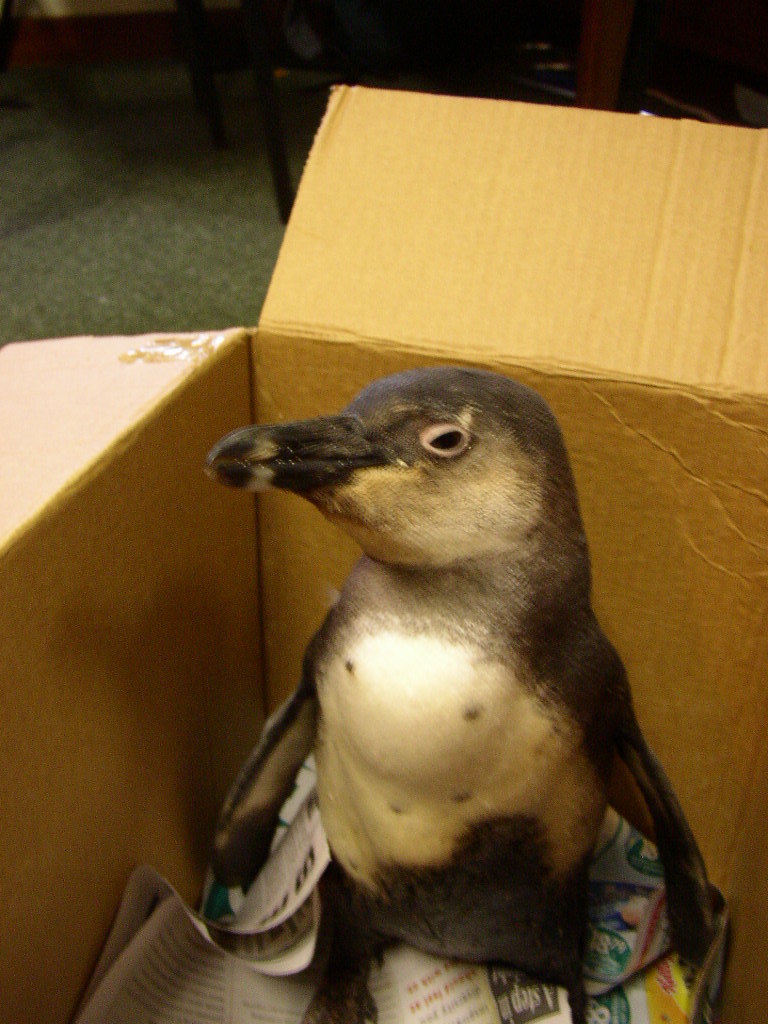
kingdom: Animalia
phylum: Chordata
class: Aves
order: Sphenisciformes
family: Spheniscidae
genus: Spheniscus
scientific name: Spheniscus demersus
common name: African penguin
